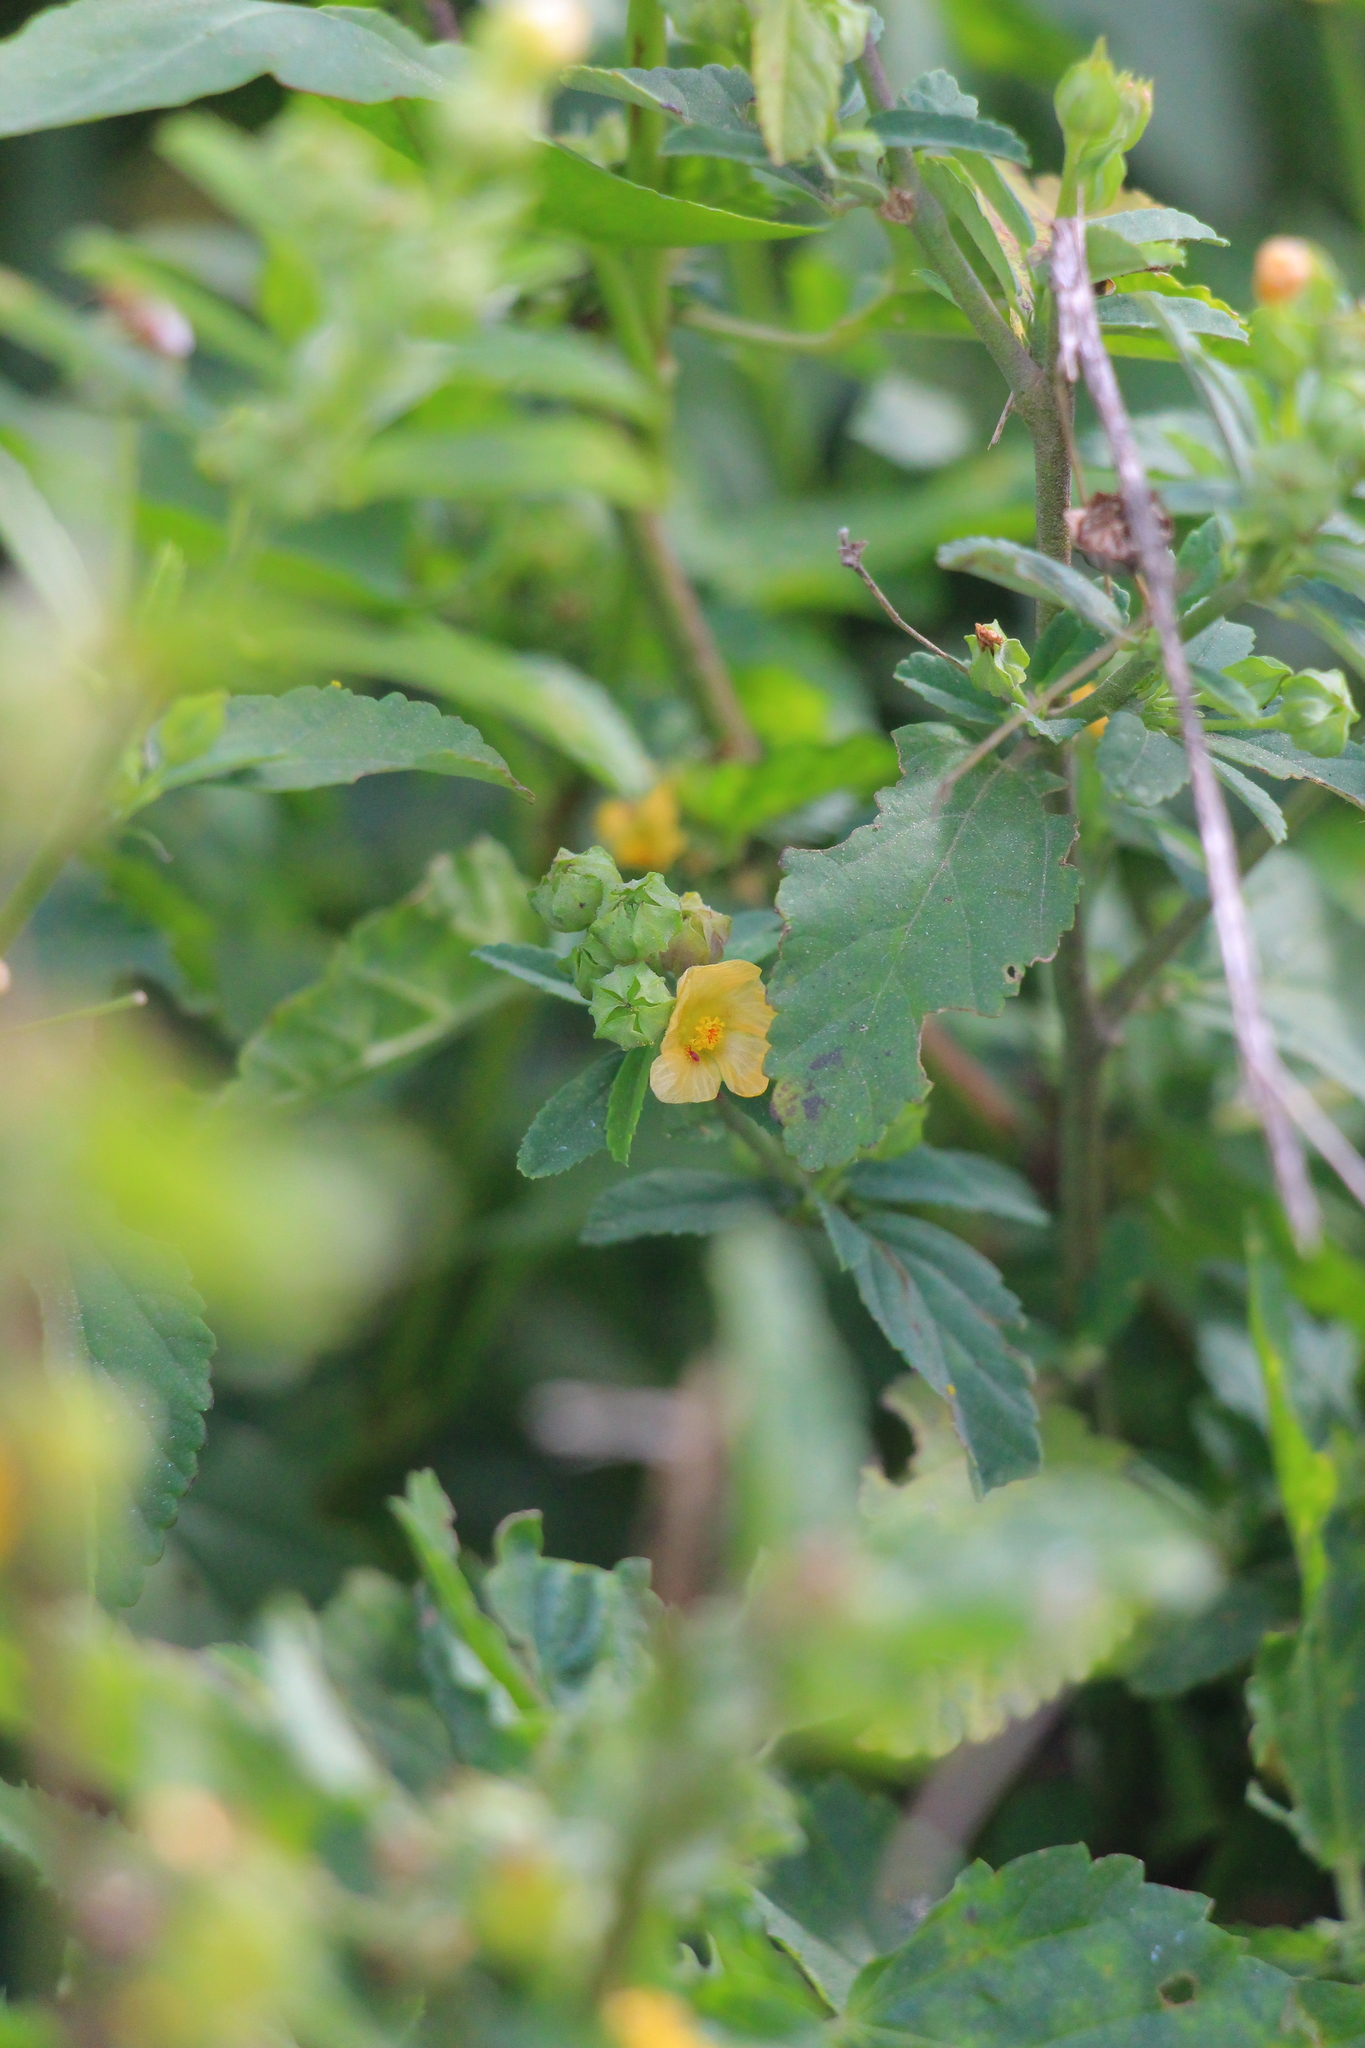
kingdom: Plantae
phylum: Tracheophyta
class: Magnoliopsida
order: Malvales
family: Malvaceae
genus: Malvastrum
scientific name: Malvastrum coromandelianum
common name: Threelobe false mallow
